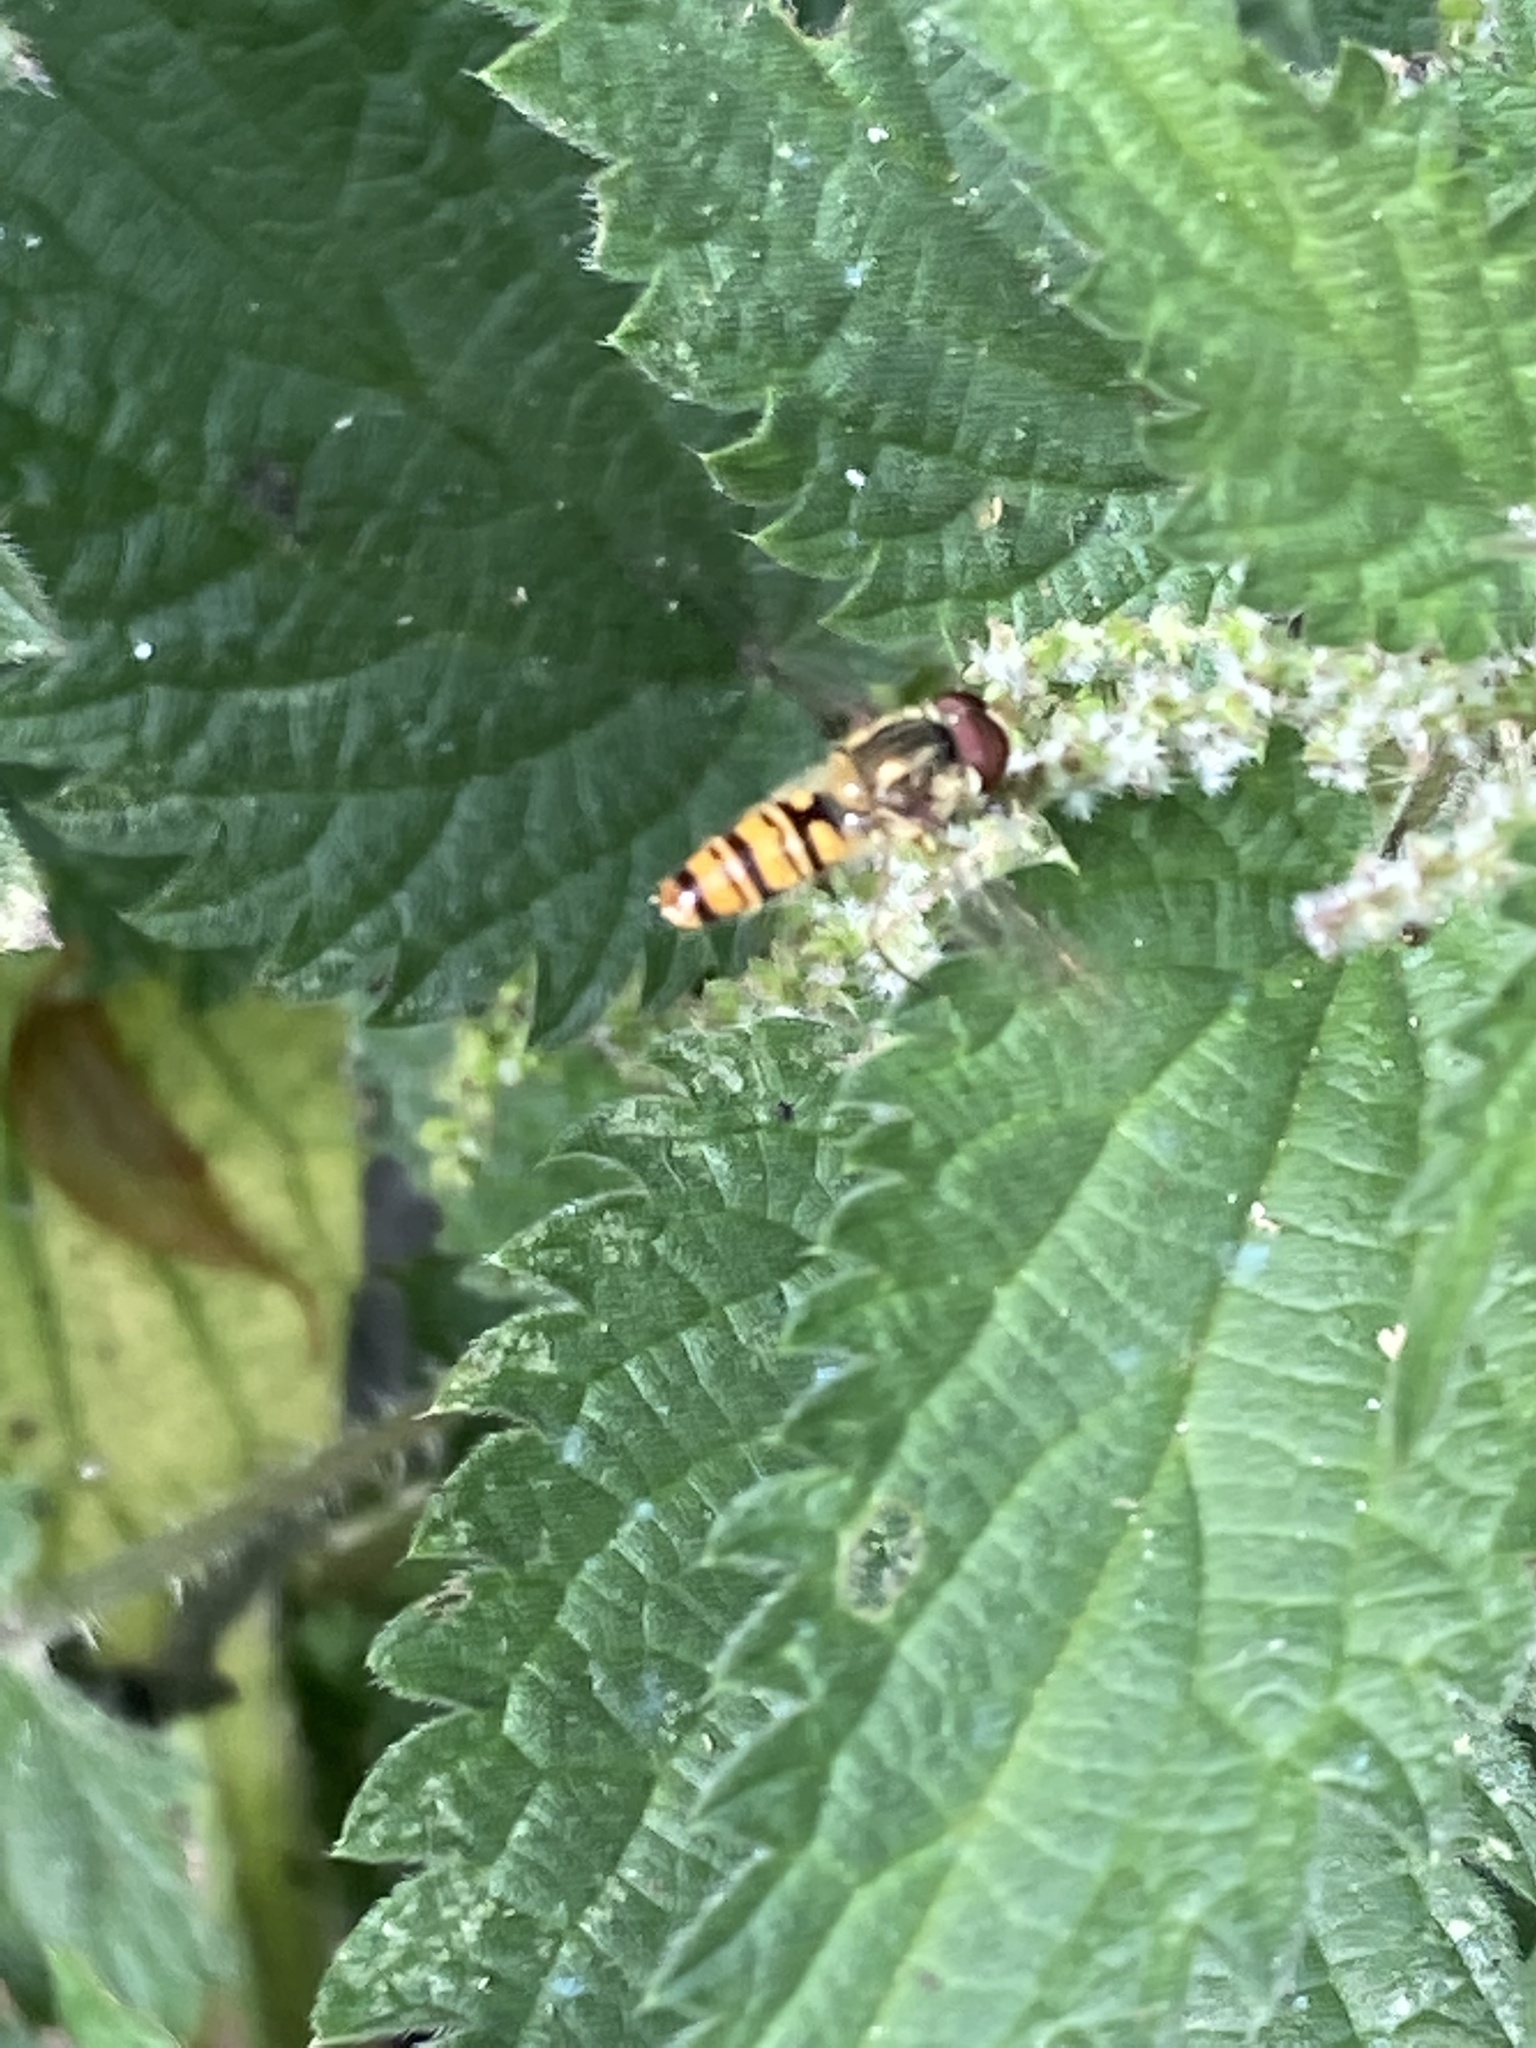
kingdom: Animalia
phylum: Arthropoda
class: Insecta
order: Diptera
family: Syrphidae
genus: Episyrphus
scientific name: Episyrphus balteatus
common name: Marmalade hoverfly
